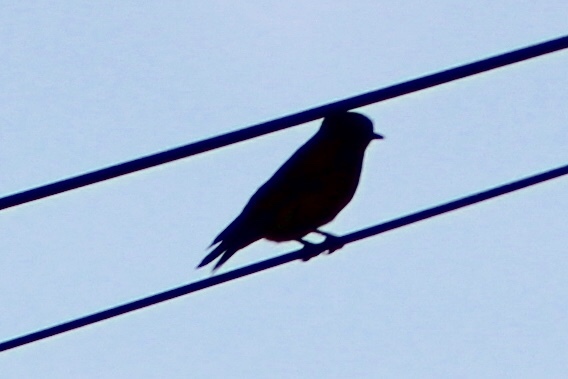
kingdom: Animalia
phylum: Chordata
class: Aves
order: Passeriformes
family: Turdidae
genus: Sialia
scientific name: Sialia mexicana
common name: Western bluebird
